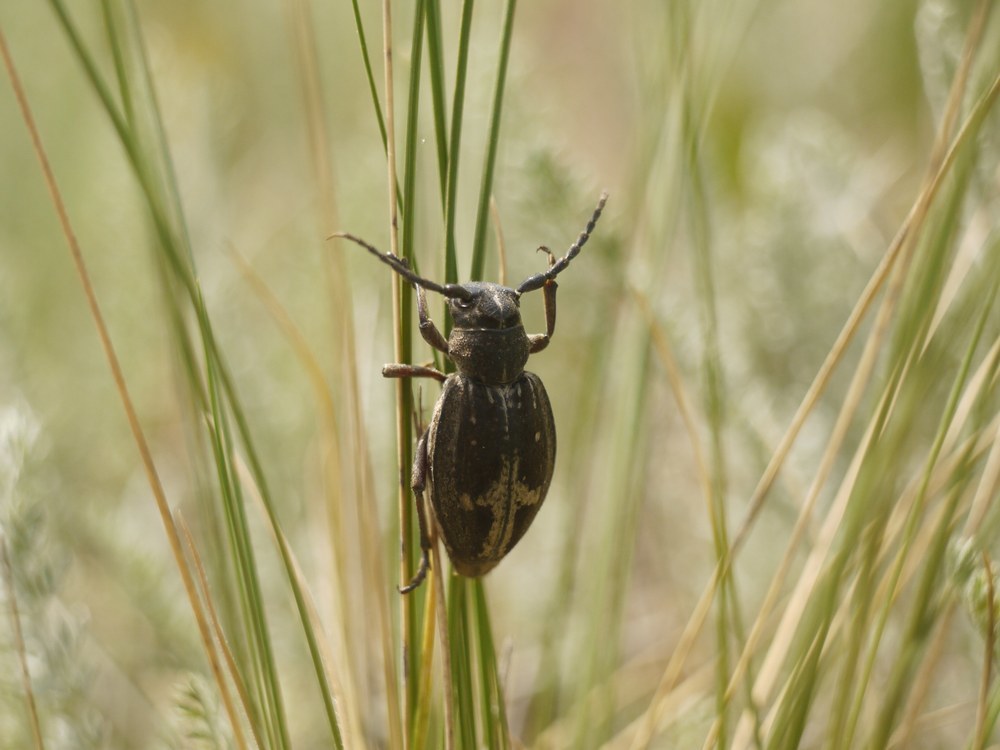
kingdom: Animalia
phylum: Arthropoda
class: Insecta
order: Coleoptera
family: Cerambycidae
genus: Dorcadion
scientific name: Dorcadion equestre
